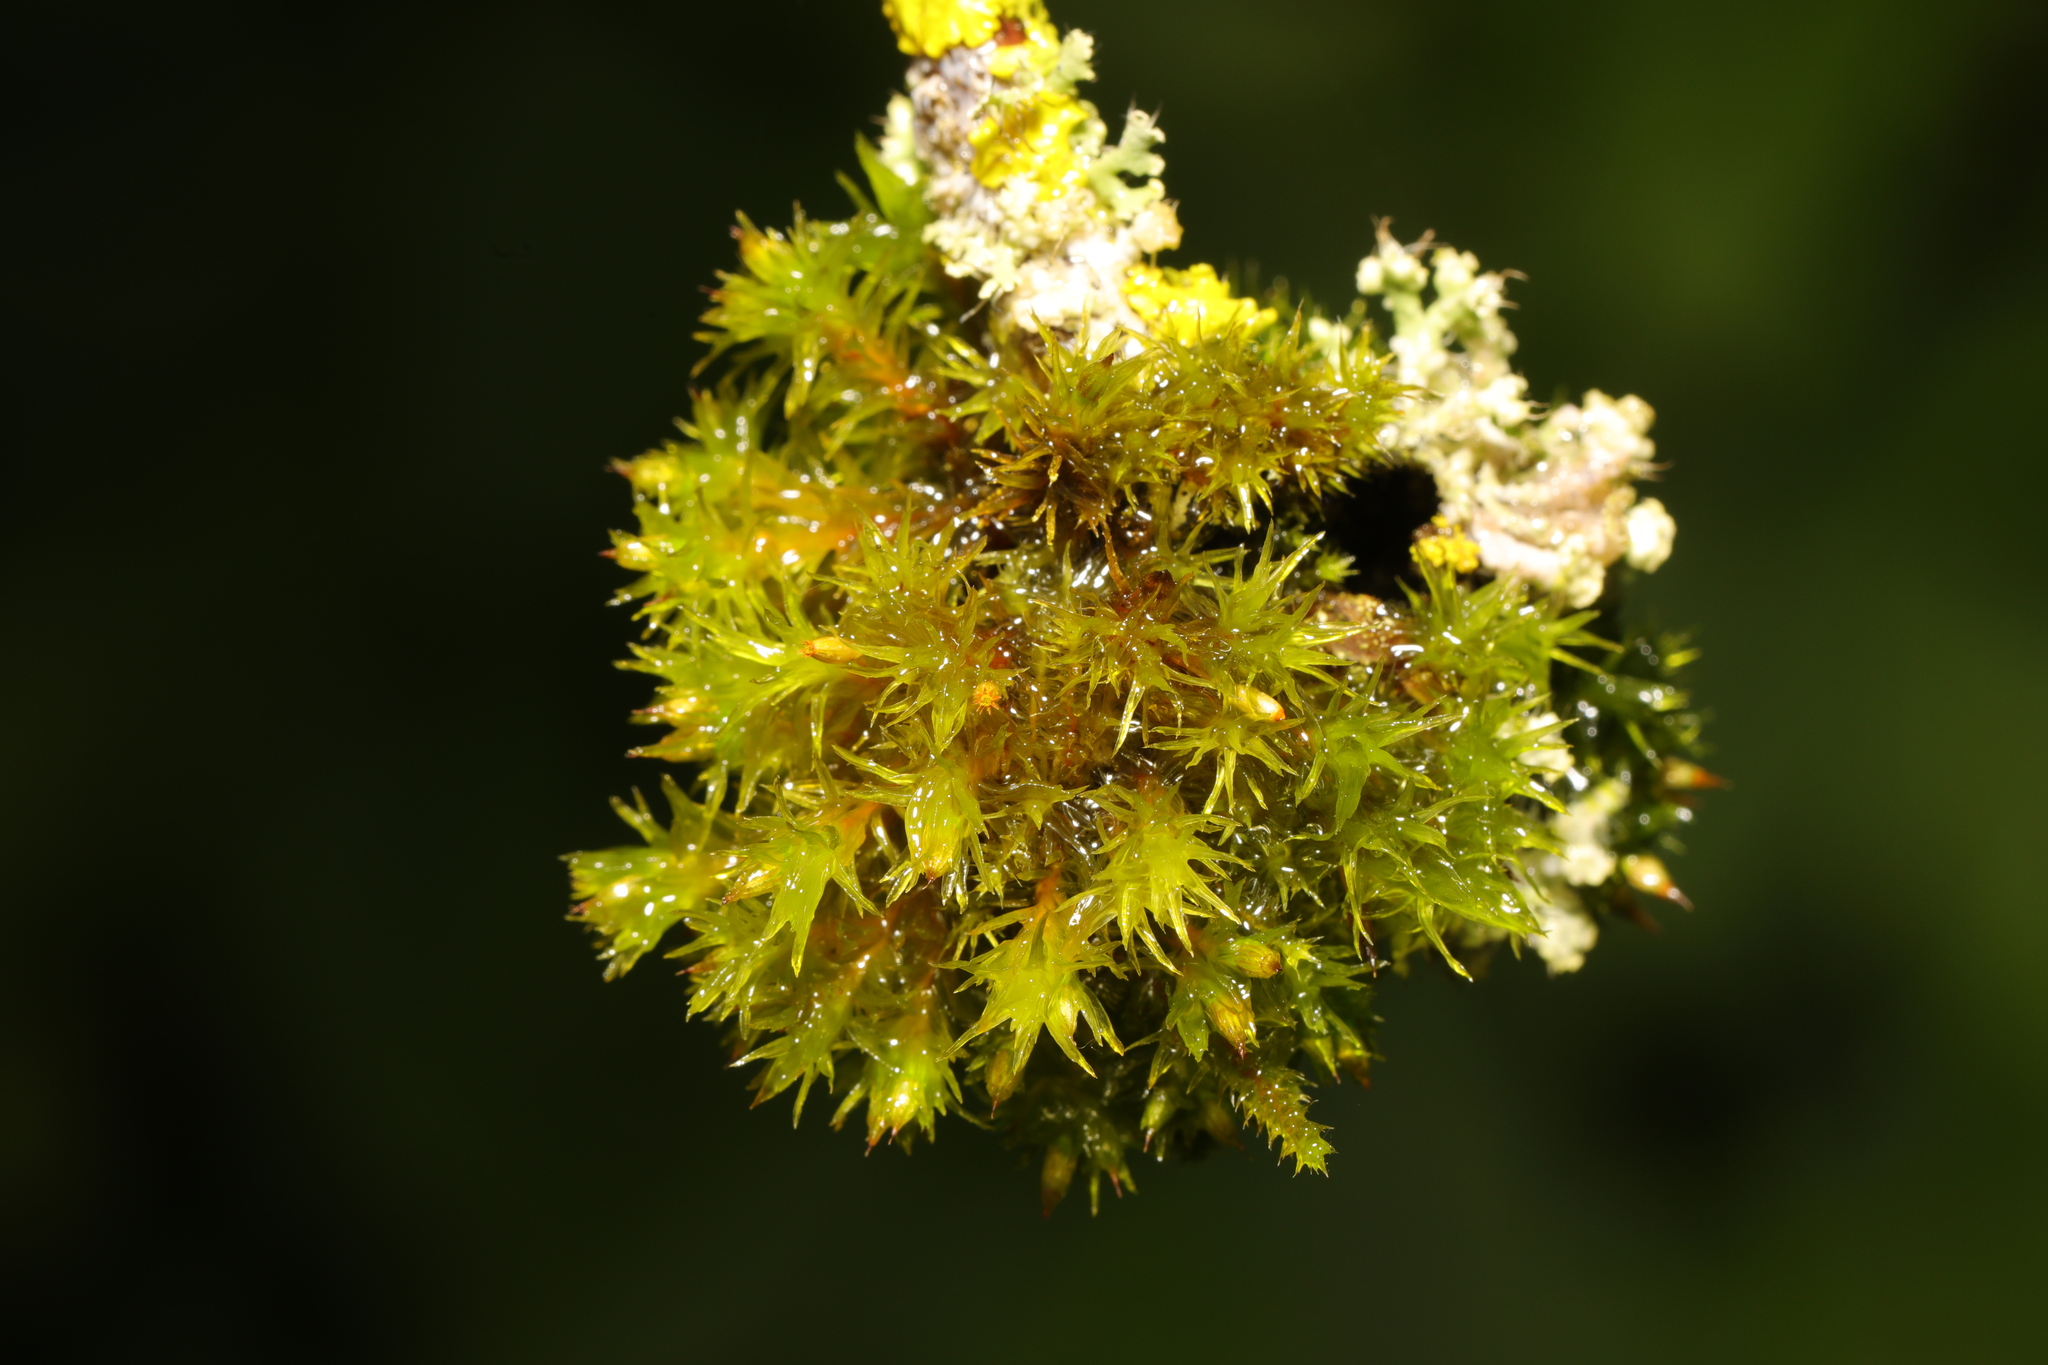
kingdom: Plantae
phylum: Bryophyta
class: Bryopsida
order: Orthotrichales
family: Orthotrichaceae
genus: Orthotrichum
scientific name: Orthotrichum pulchellum
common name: Elegant bristle-moss
